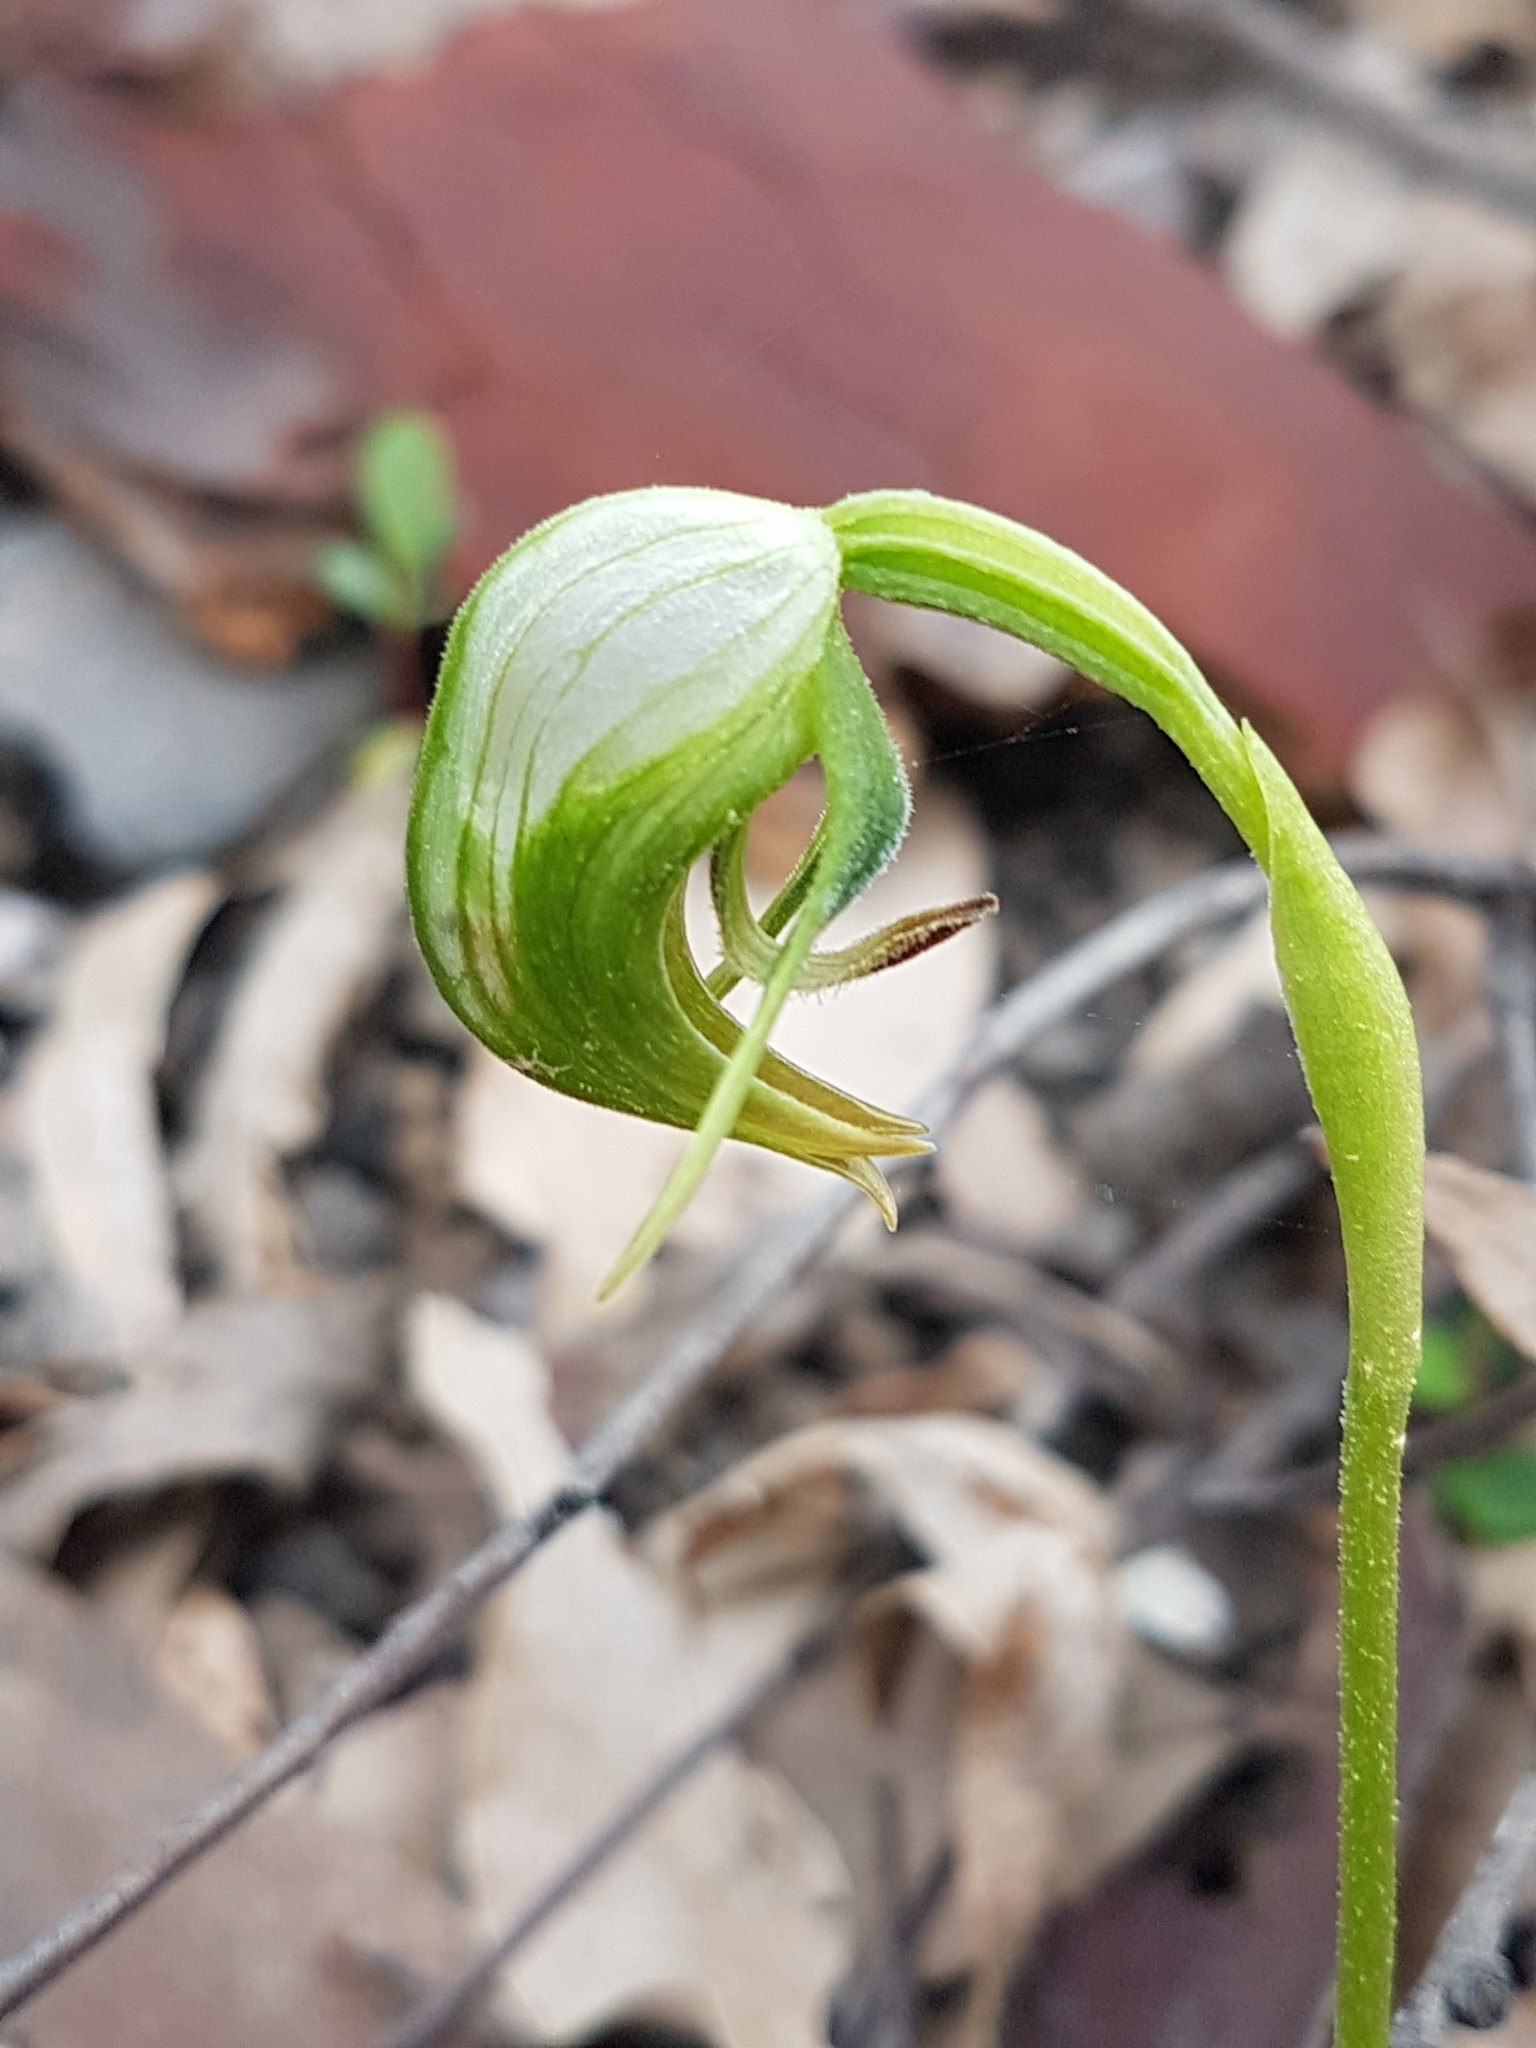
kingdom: Plantae
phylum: Tracheophyta
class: Liliopsida
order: Asparagales
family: Orchidaceae
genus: Pterostylis
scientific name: Pterostylis nutans
